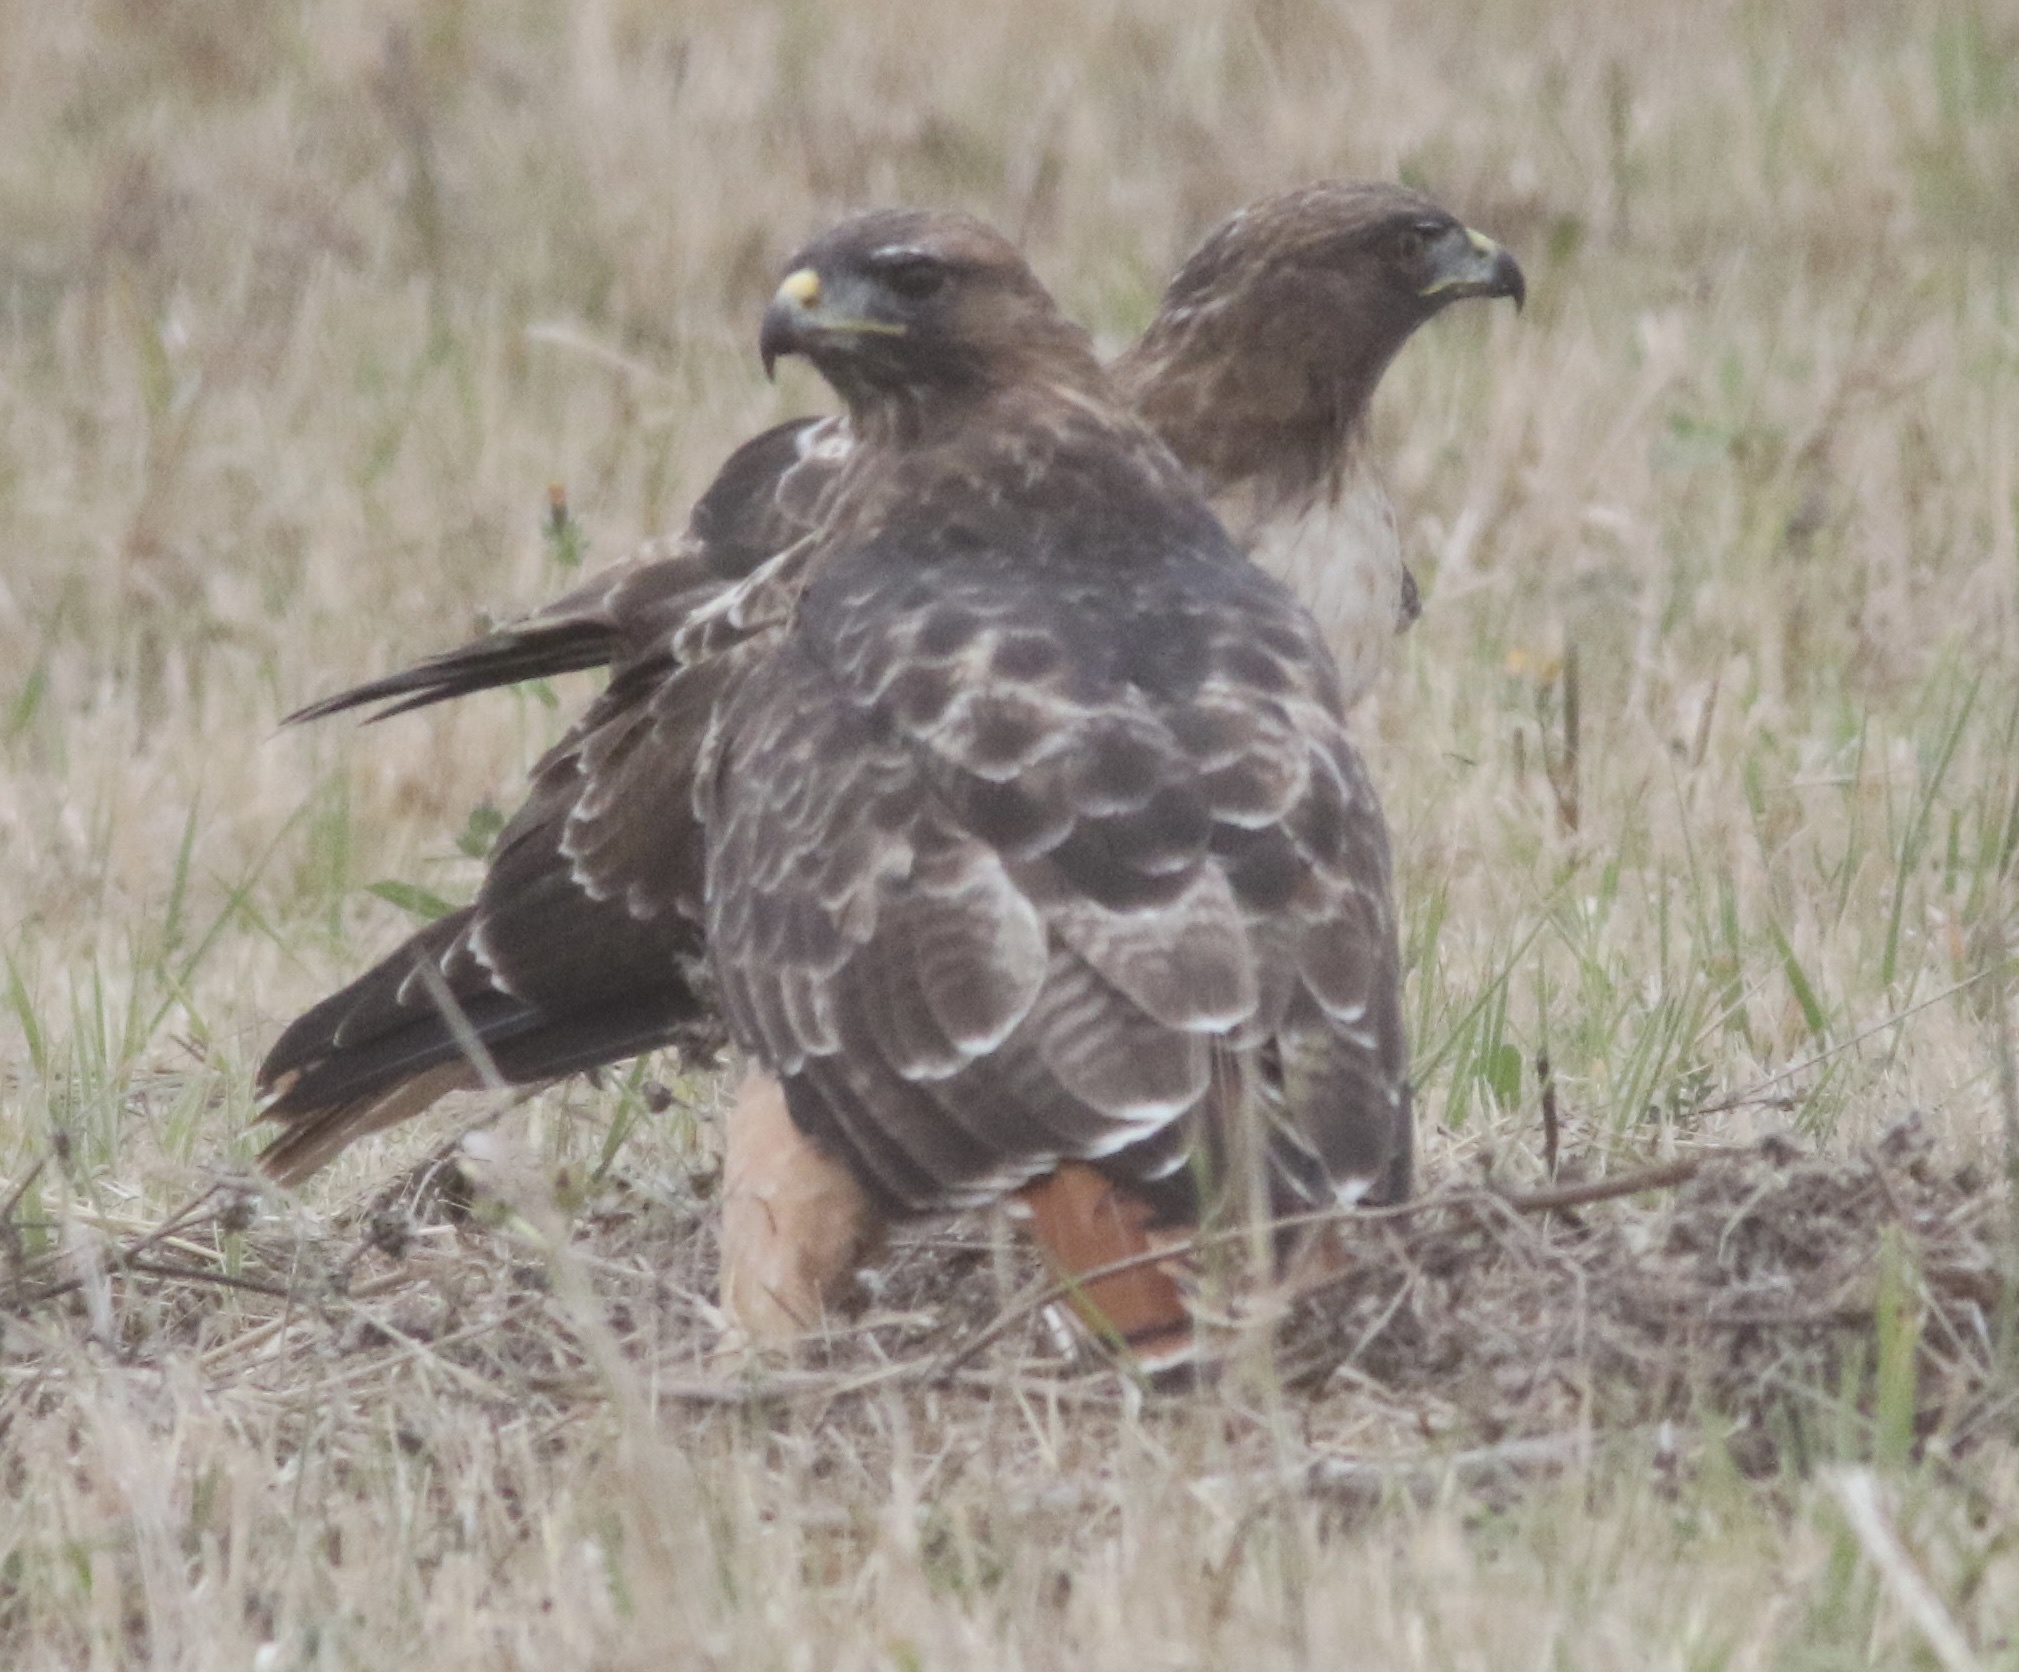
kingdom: Animalia
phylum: Chordata
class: Aves
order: Accipitriformes
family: Accipitridae
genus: Buteo
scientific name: Buteo jamaicensis
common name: Red-tailed hawk
